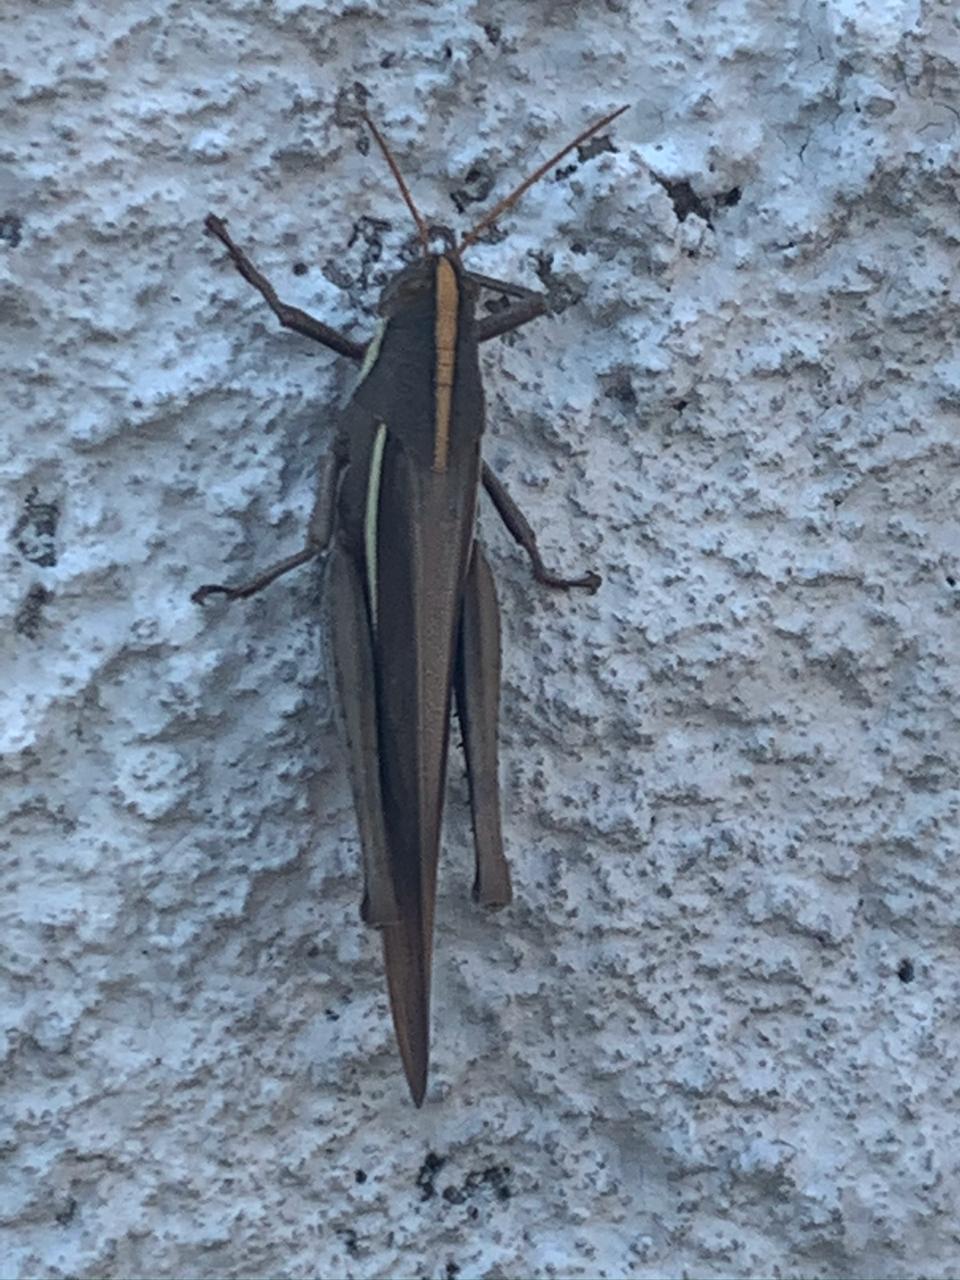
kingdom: Animalia
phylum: Arthropoda
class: Insecta
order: Orthoptera
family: Acrididae
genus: Schistocerca
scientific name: Schistocerca flavofasciata
